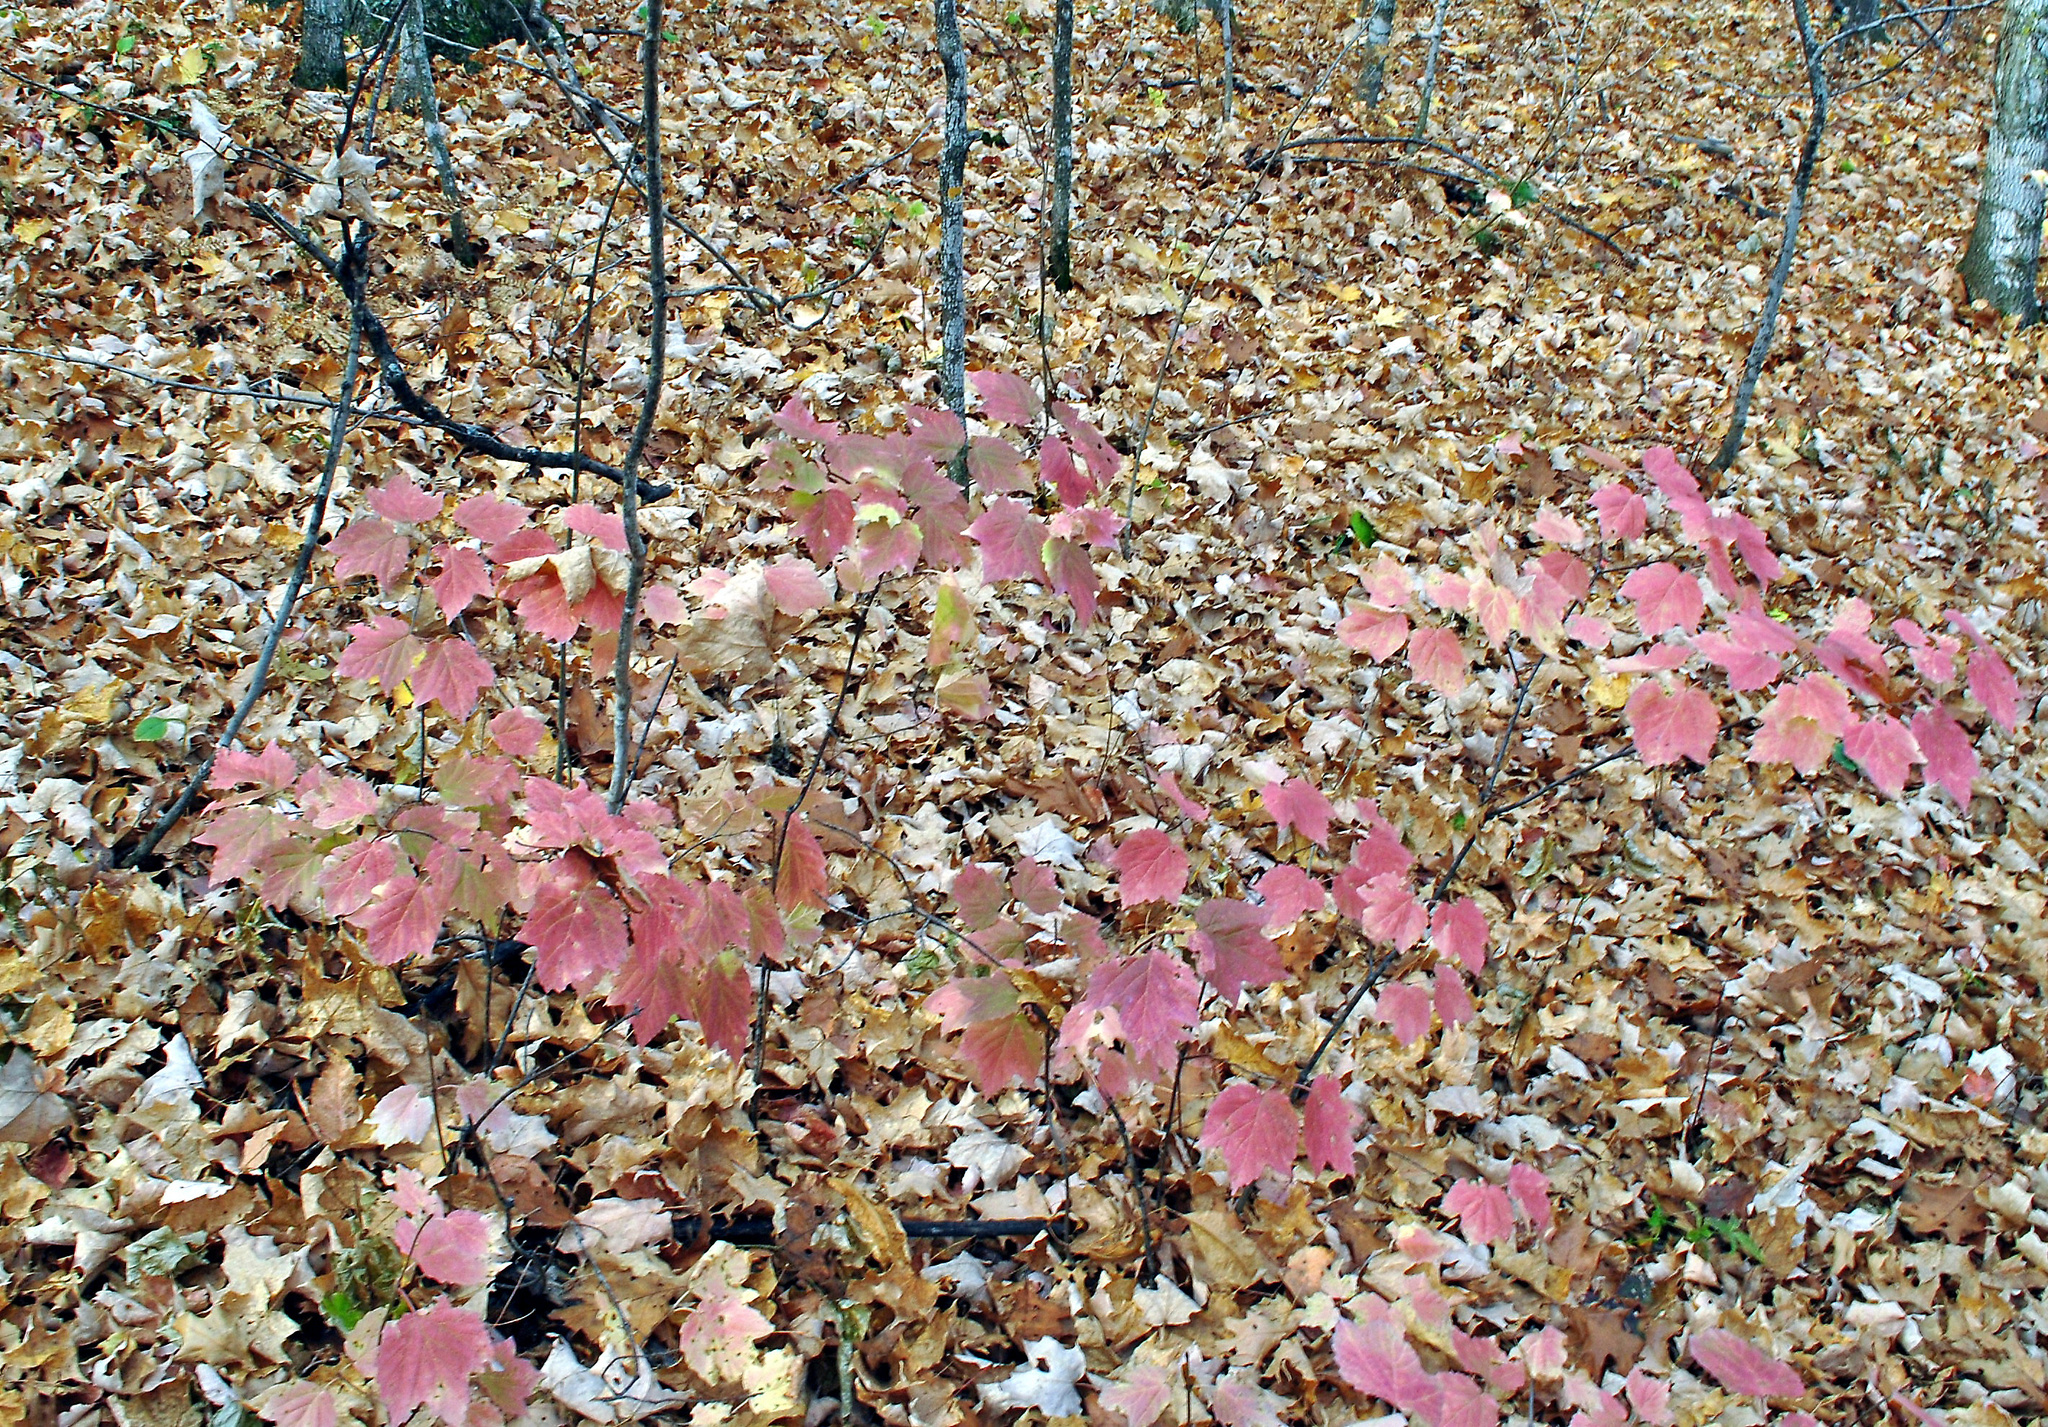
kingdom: Plantae
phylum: Tracheophyta
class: Magnoliopsida
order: Sapindales
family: Sapindaceae
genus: Acer
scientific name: Acer spicatum
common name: Mountain maple
